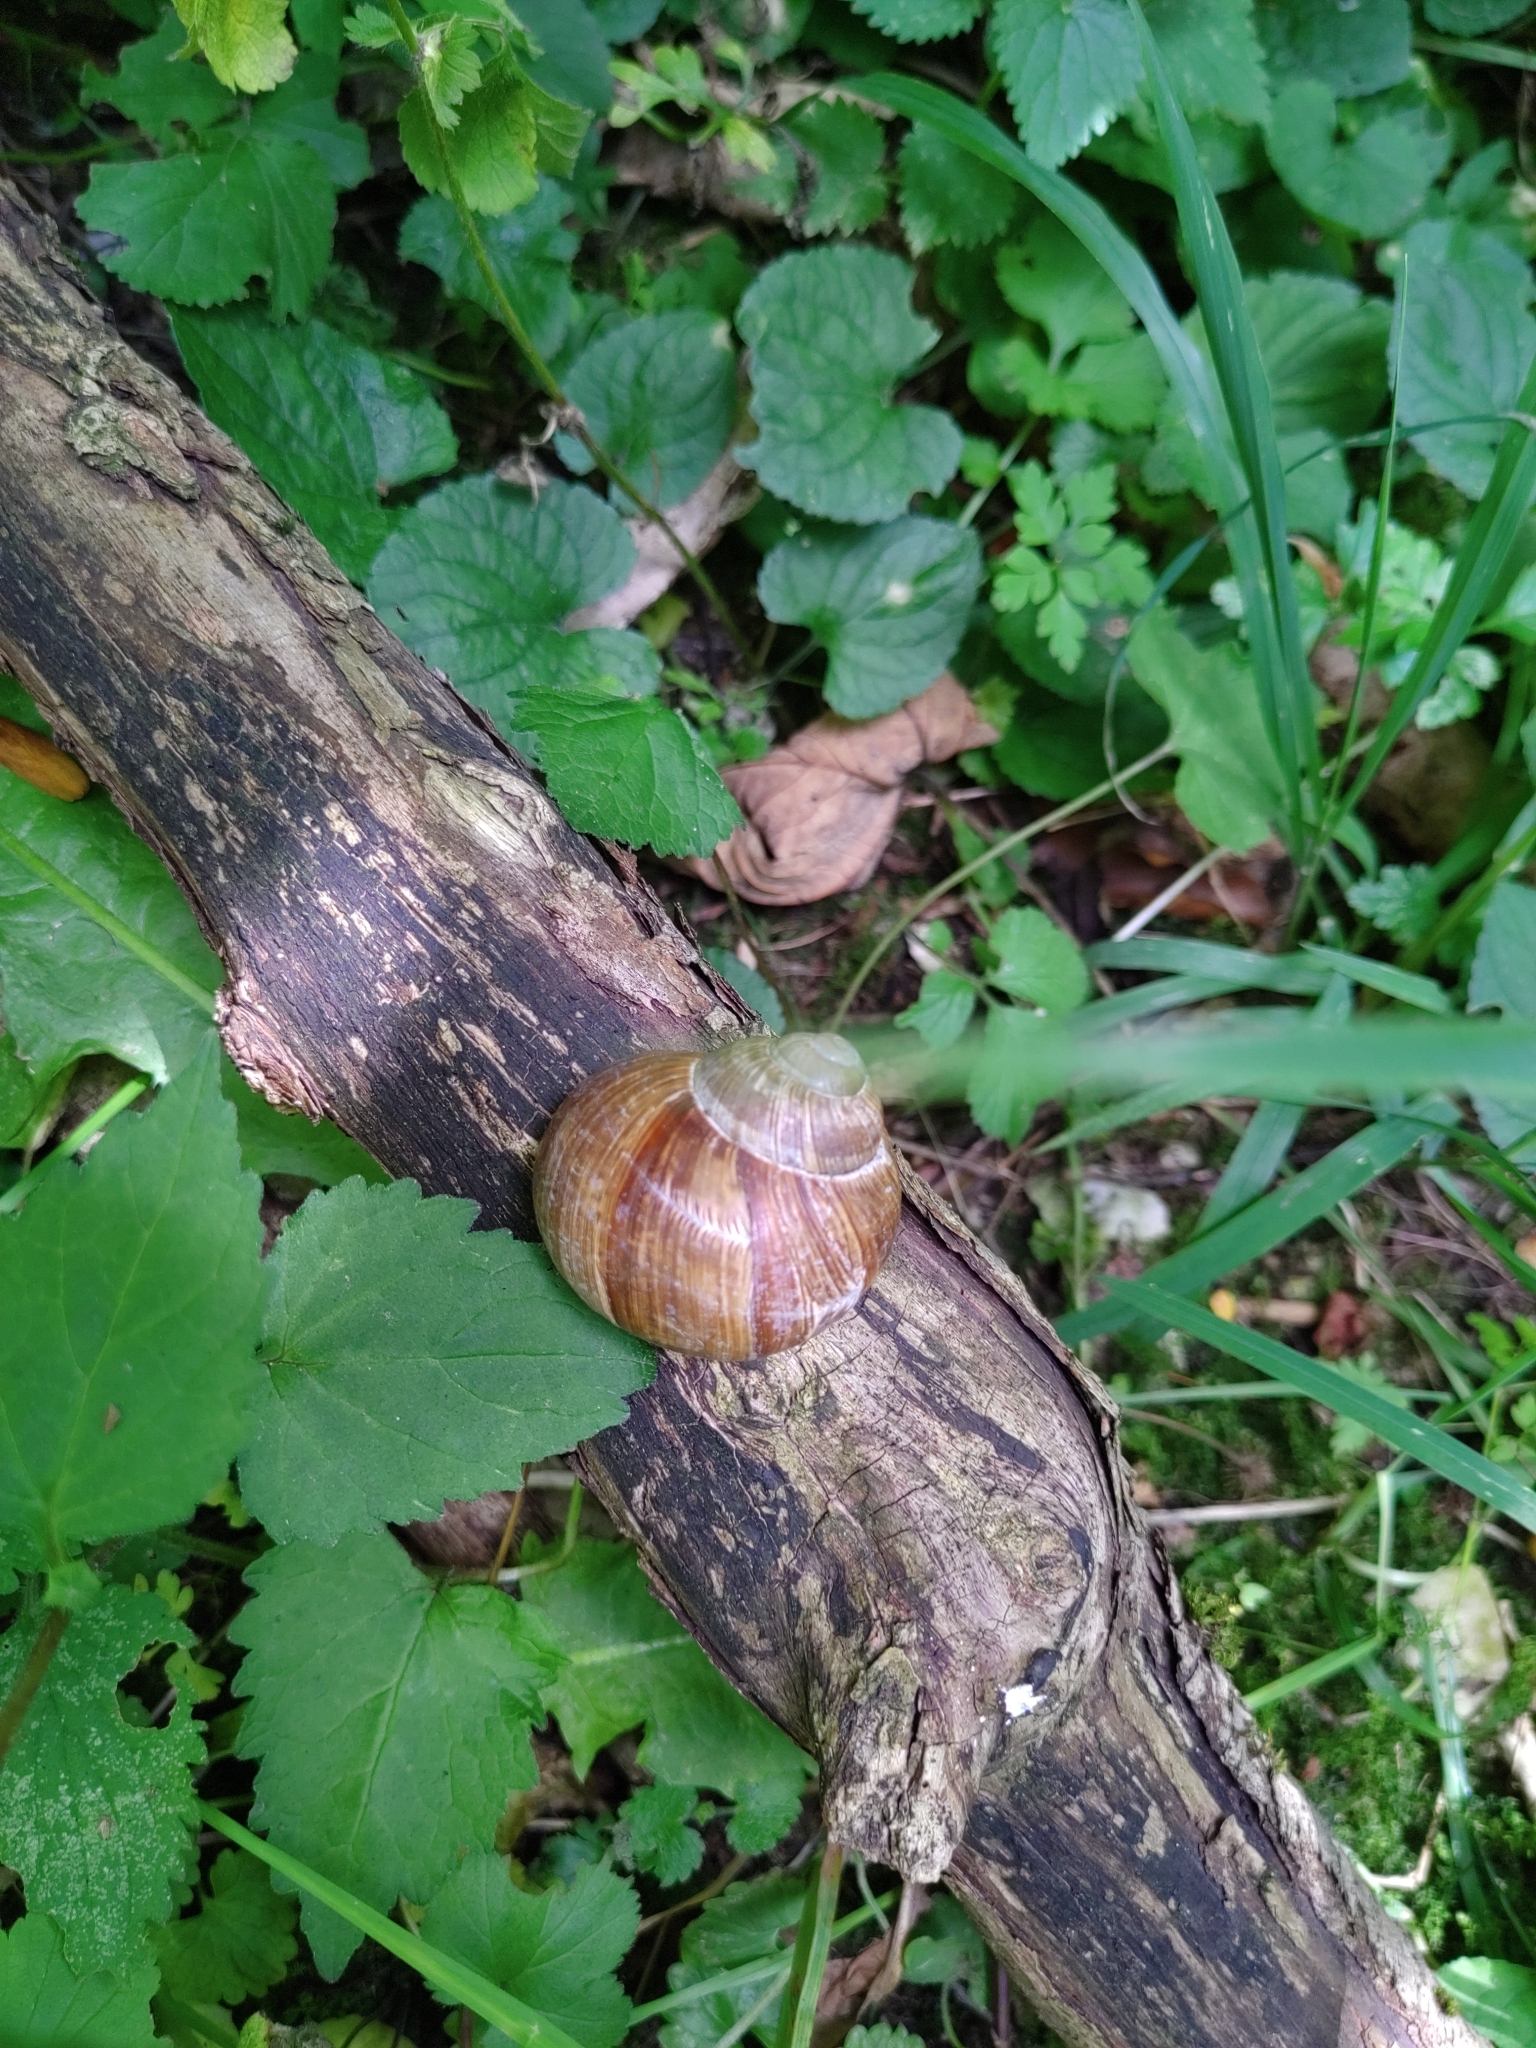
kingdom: Animalia
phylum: Mollusca
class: Gastropoda
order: Stylommatophora
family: Helicidae
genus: Helix
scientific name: Helix pomatia
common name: Roman snail
